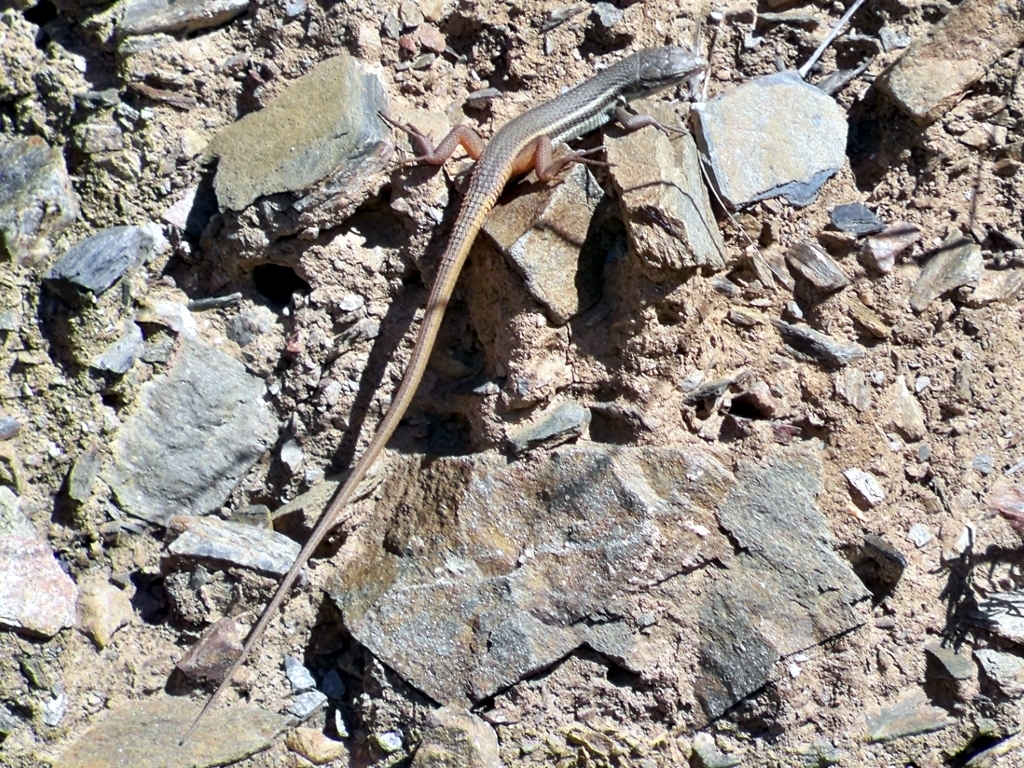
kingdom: Animalia
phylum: Chordata
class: Squamata
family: Lacertidae
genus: Psammodromus
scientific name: Psammodromus algirus
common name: Algerian psammodromus
